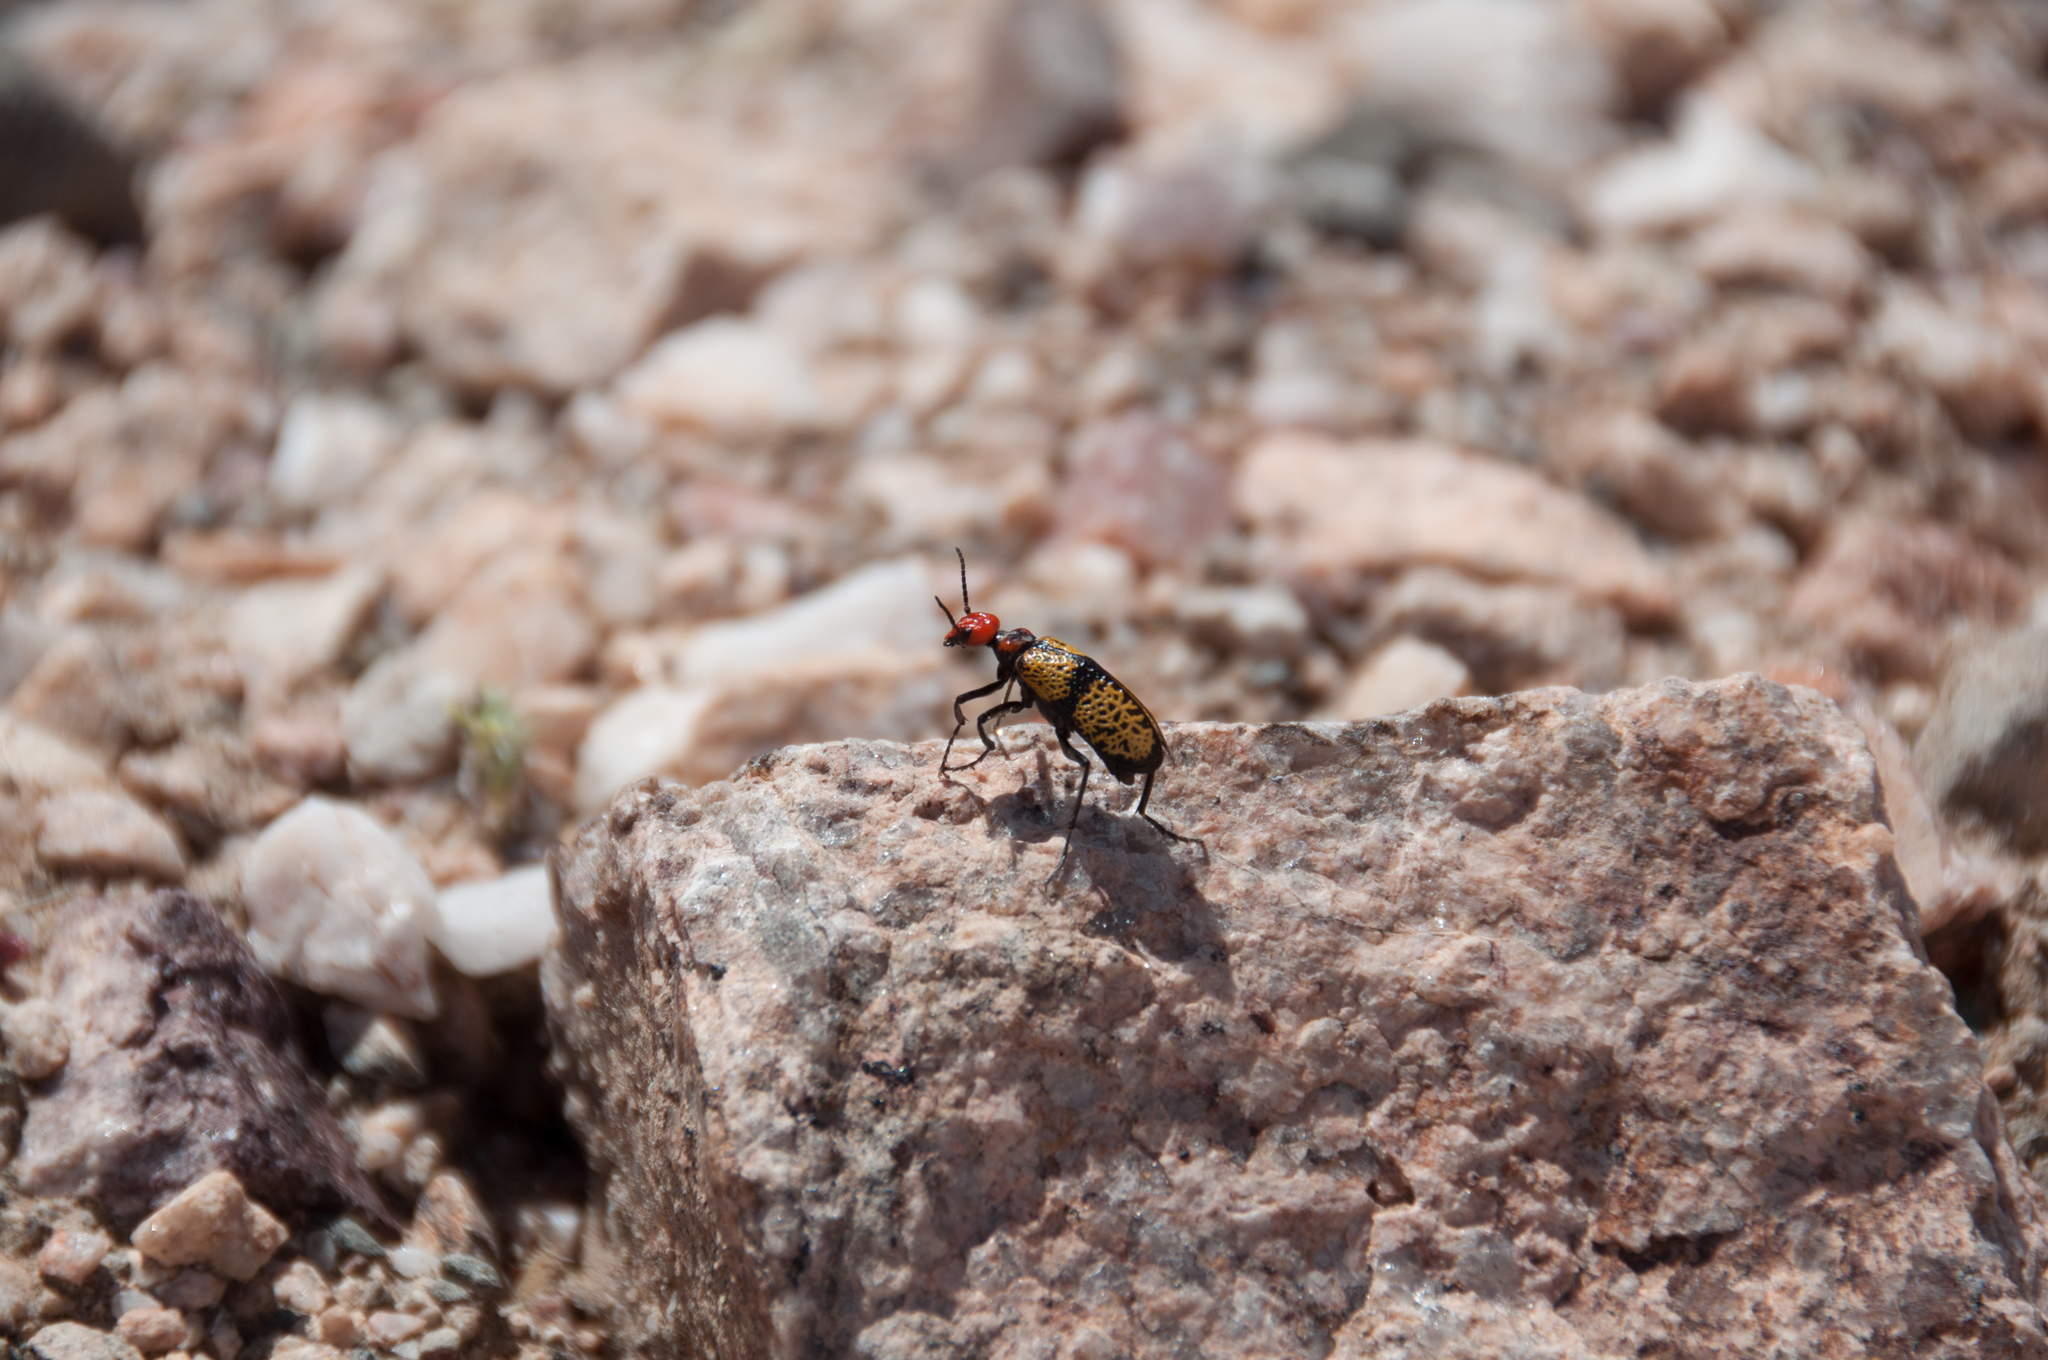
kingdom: Animalia
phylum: Arthropoda
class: Insecta
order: Coleoptera
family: Meloidae
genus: Tegrodera
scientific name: Tegrodera aloga
